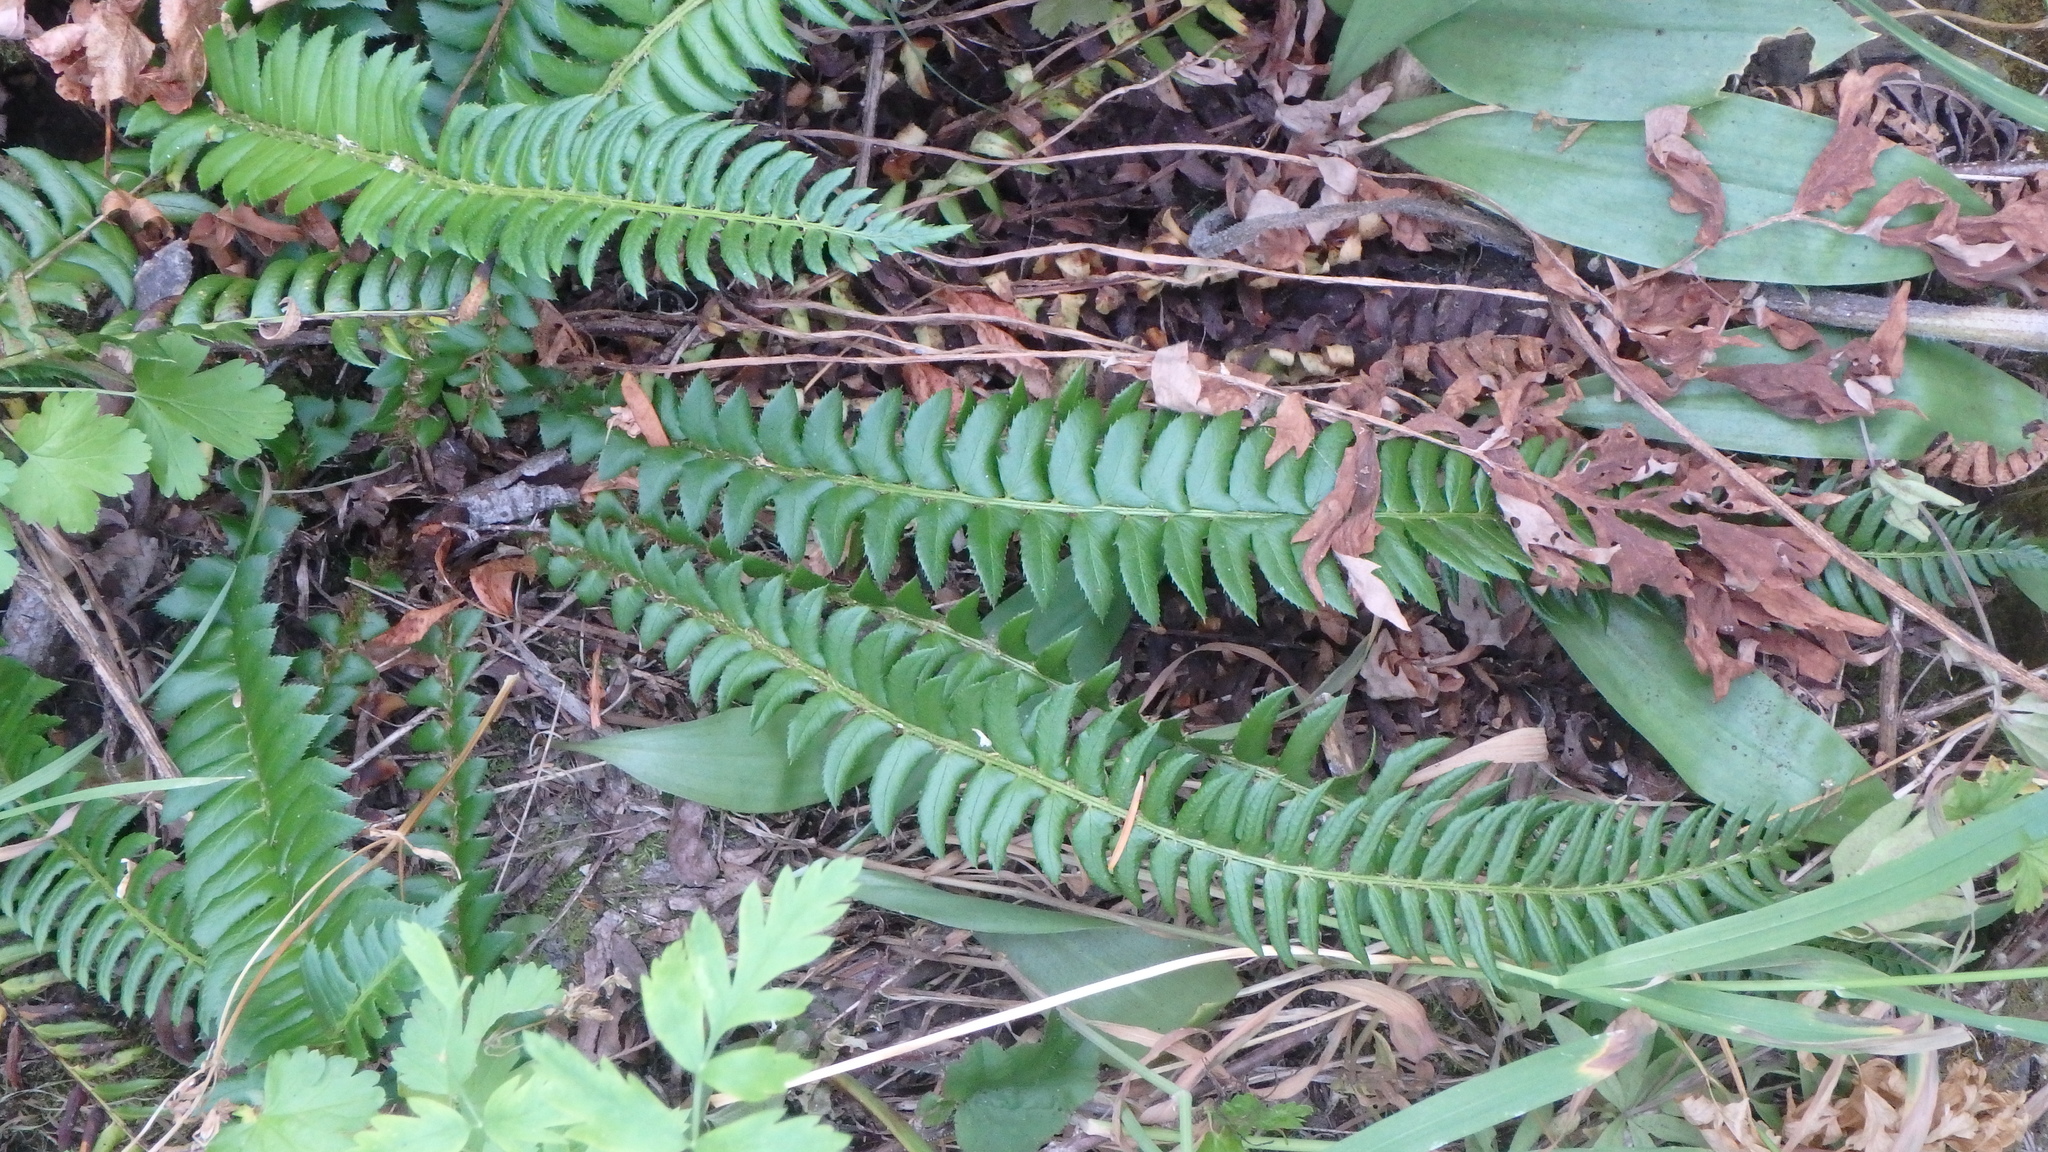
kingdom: Plantae
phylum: Tracheophyta
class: Polypodiopsida
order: Polypodiales
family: Dryopteridaceae
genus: Polystichum
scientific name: Polystichum lonchitis
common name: Holly fern
